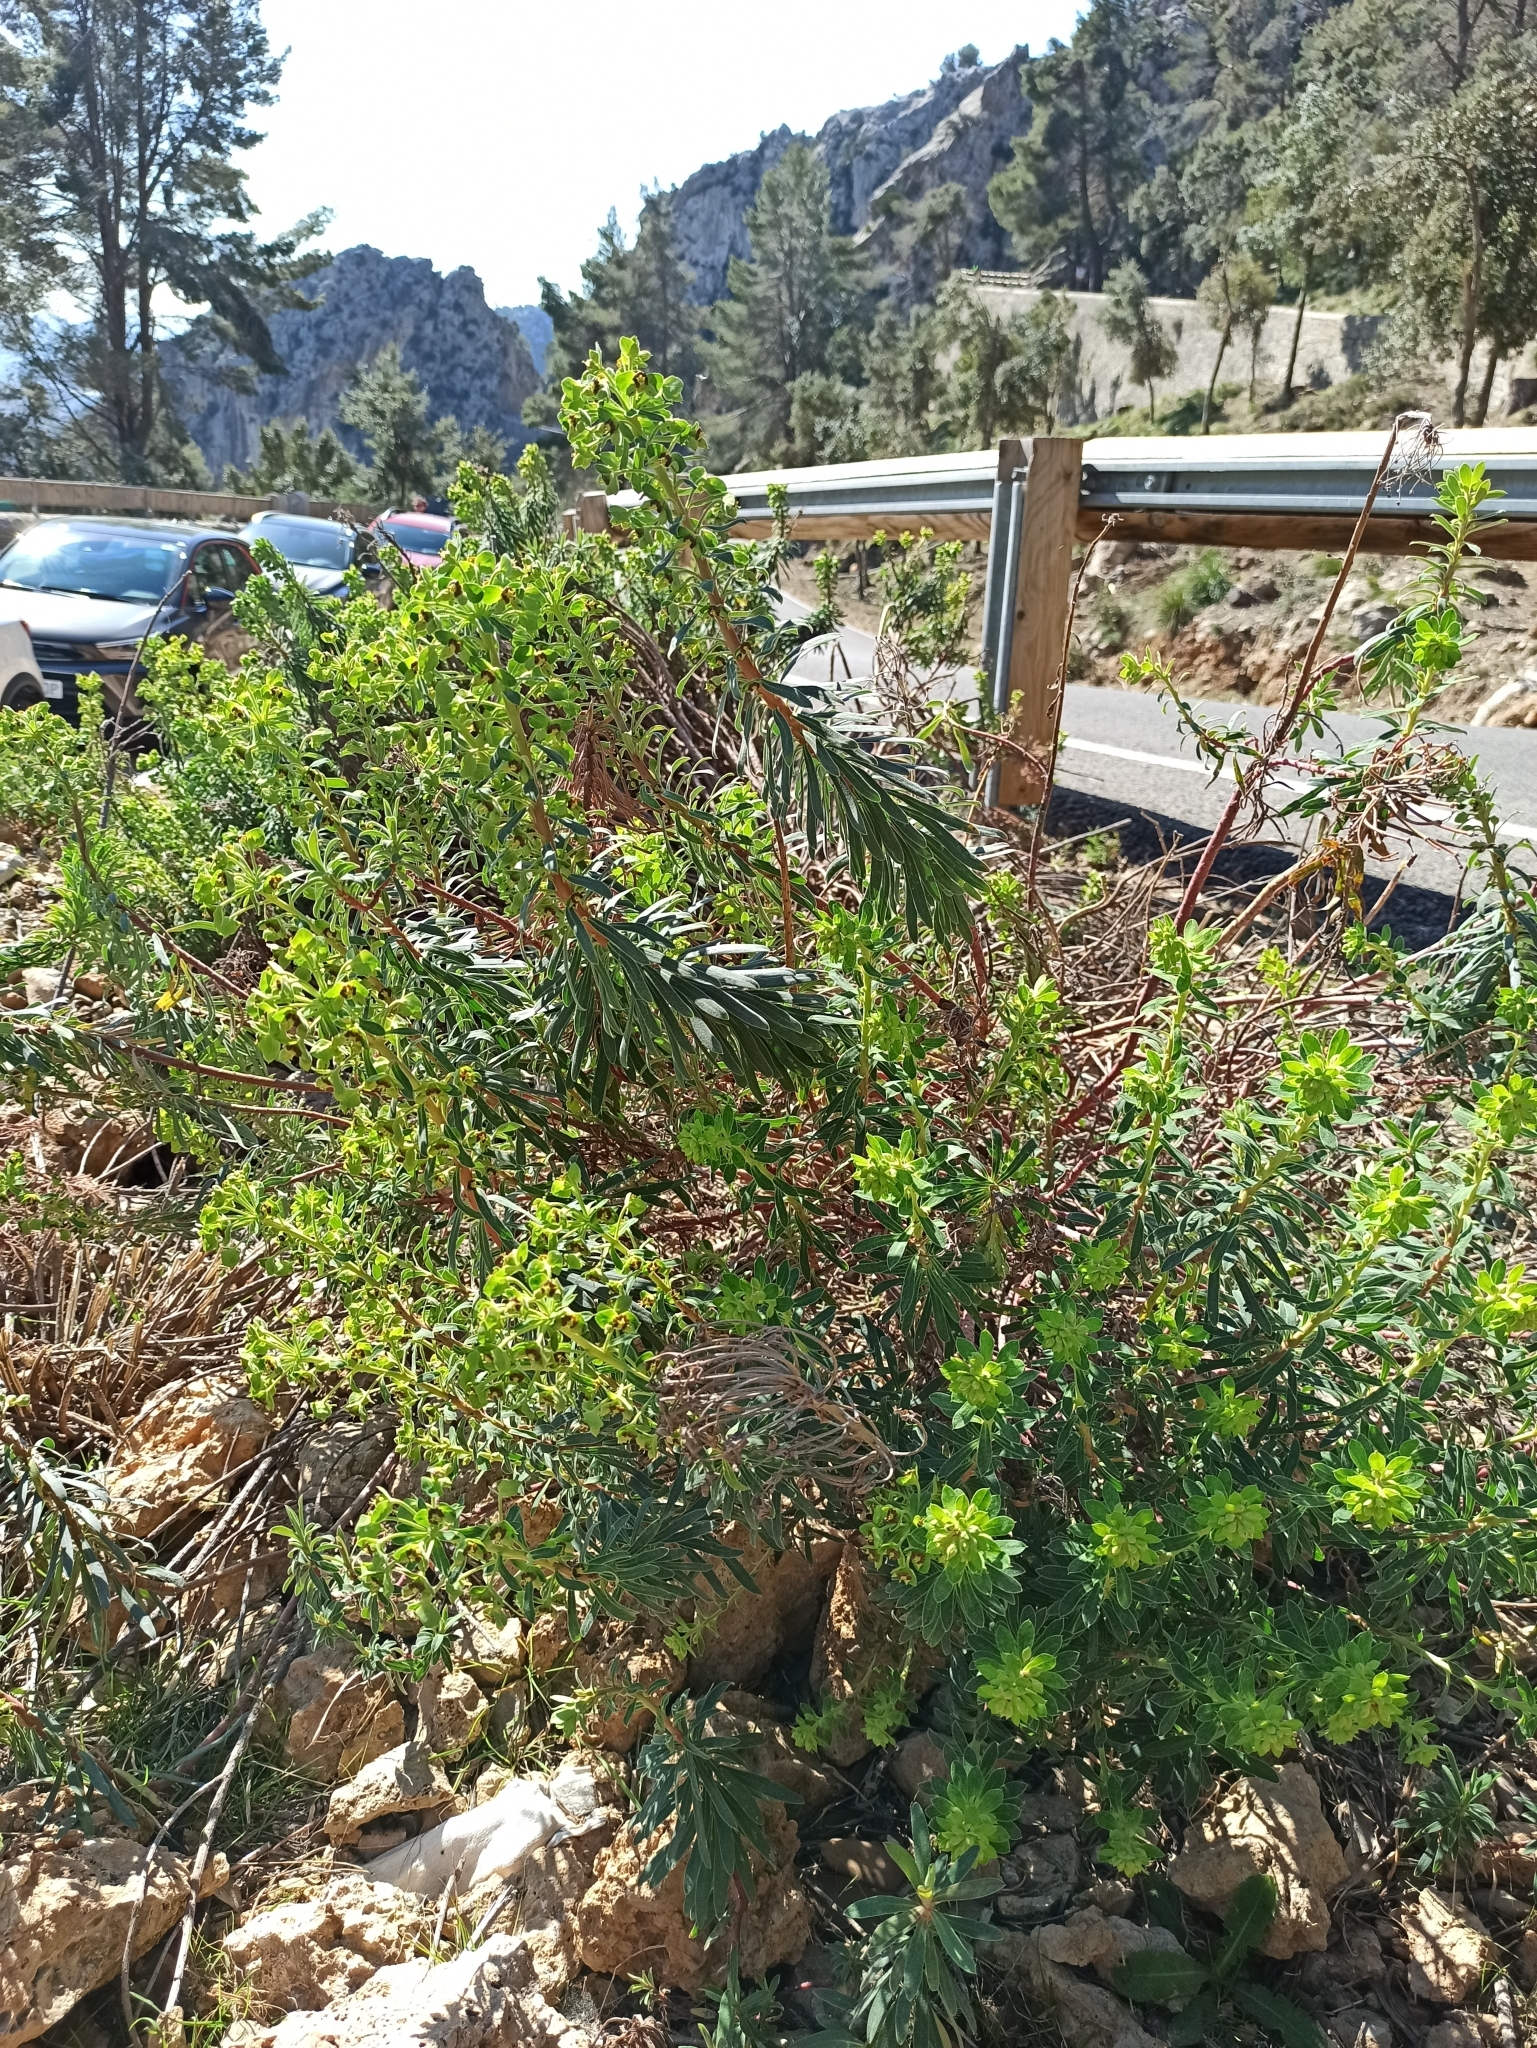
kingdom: Plantae
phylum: Tracheophyta
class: Magnoliopsida
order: Malpighiales
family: Euphorbiaceae
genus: Euphorbia
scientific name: Euphorbia characias
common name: Mediterranean spurge
